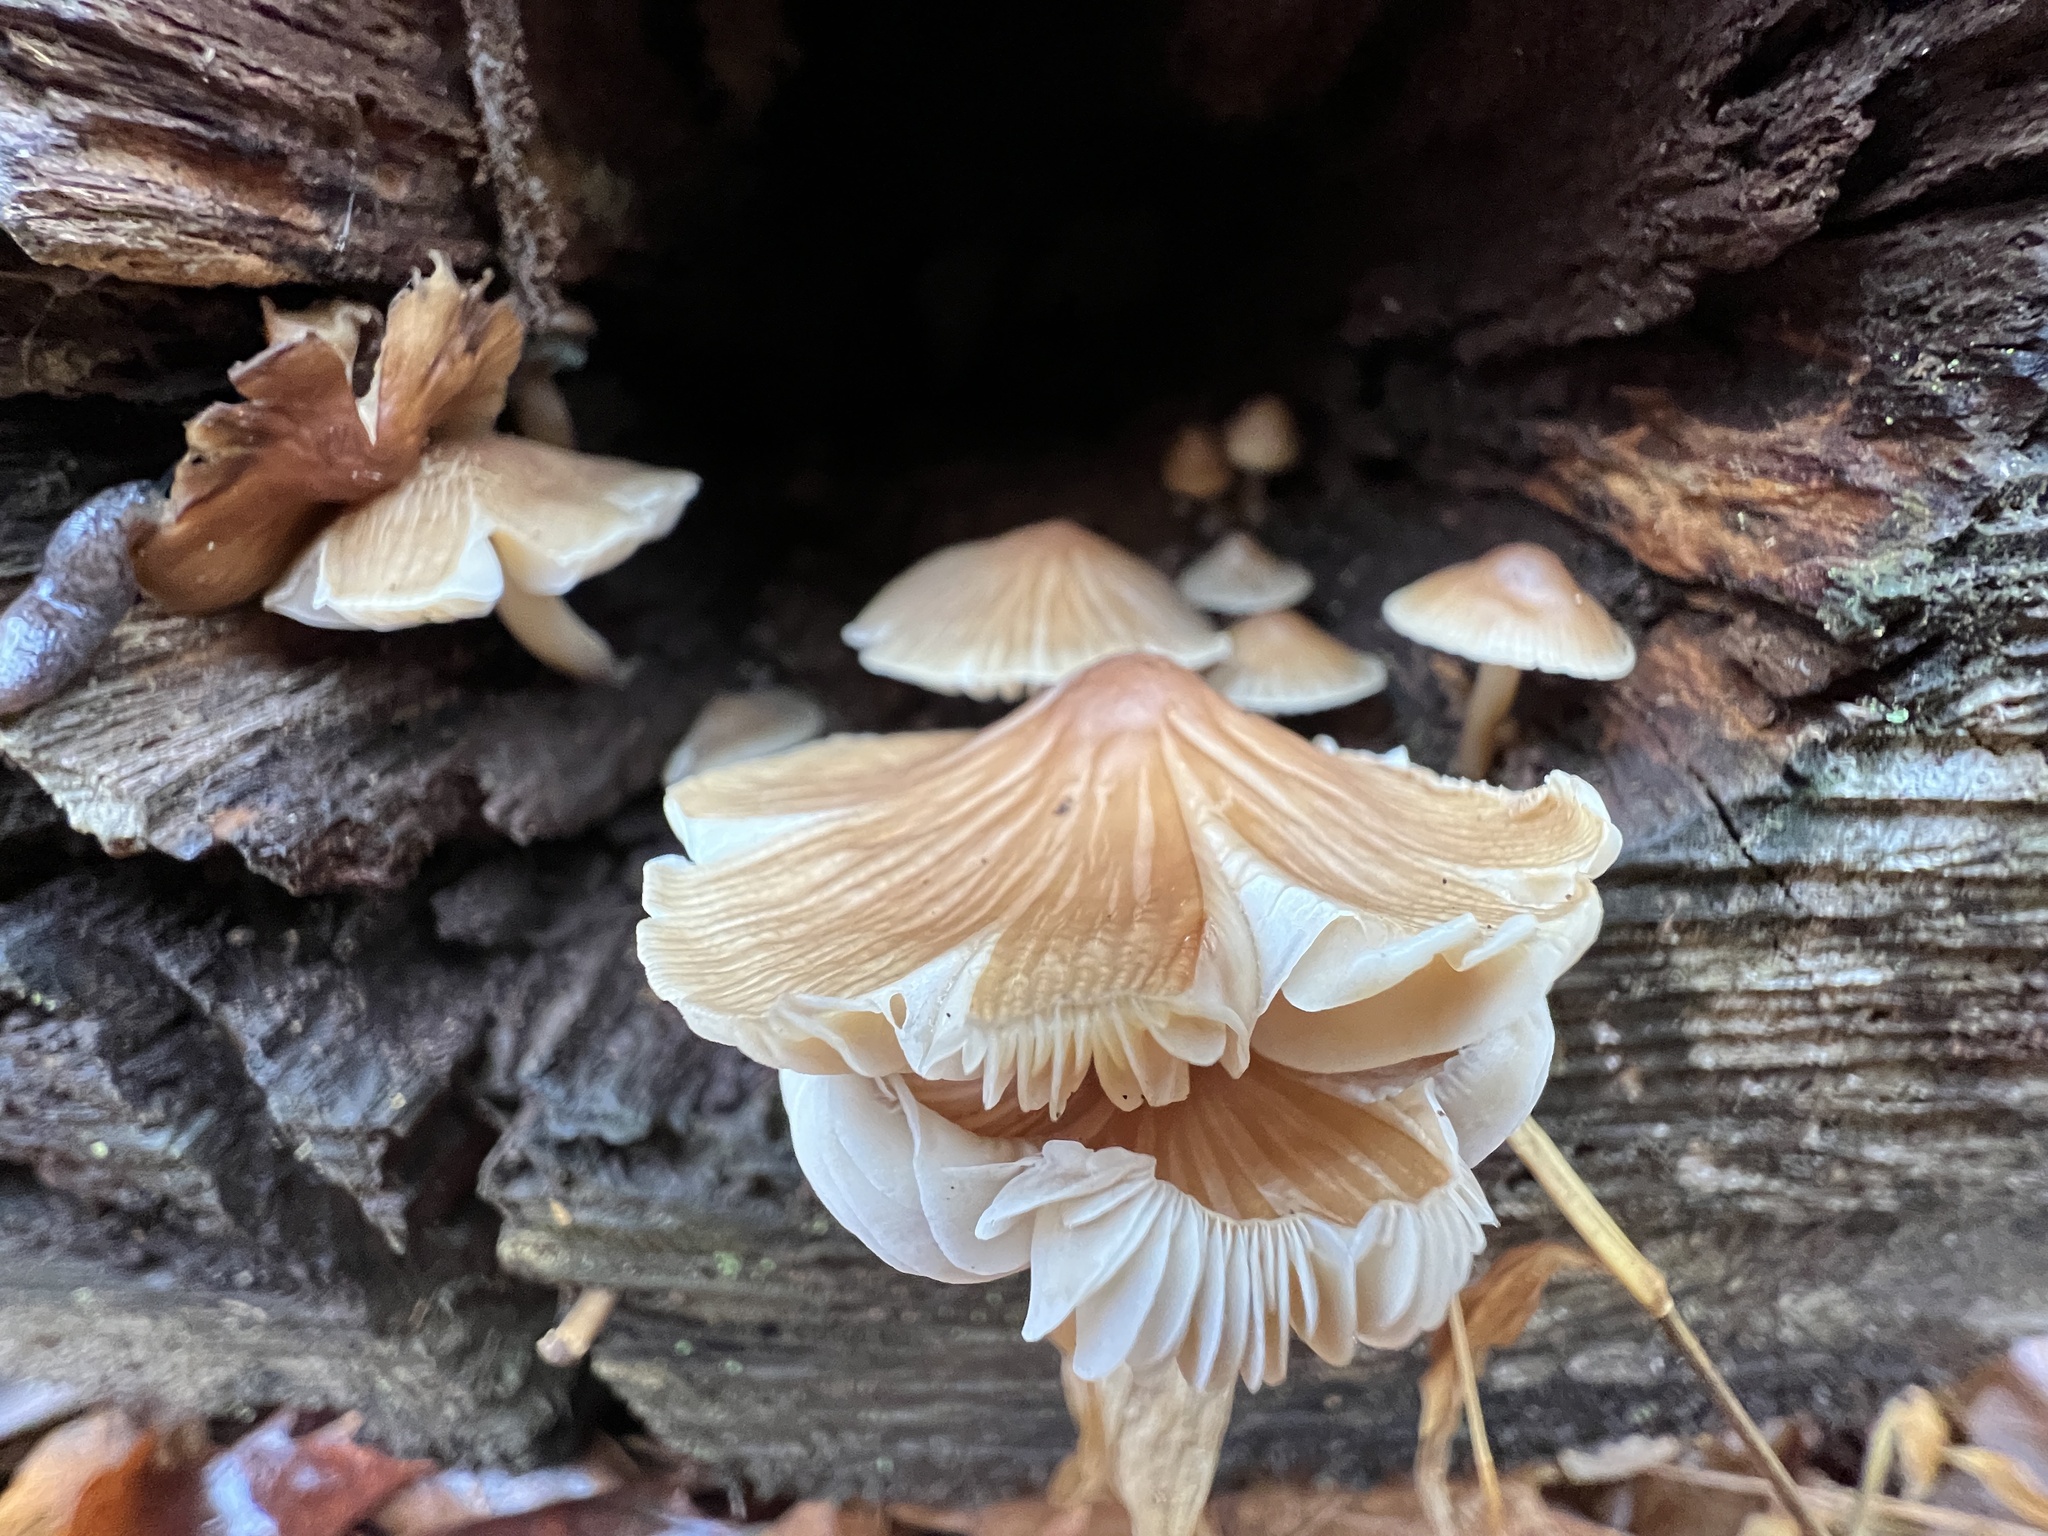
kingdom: Fungi
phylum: Basidiomycota
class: Agaricomycetes
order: Agaricales
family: Mycenaceae
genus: Mycena
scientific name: Mycena galericulata
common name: Bonnet mycena
